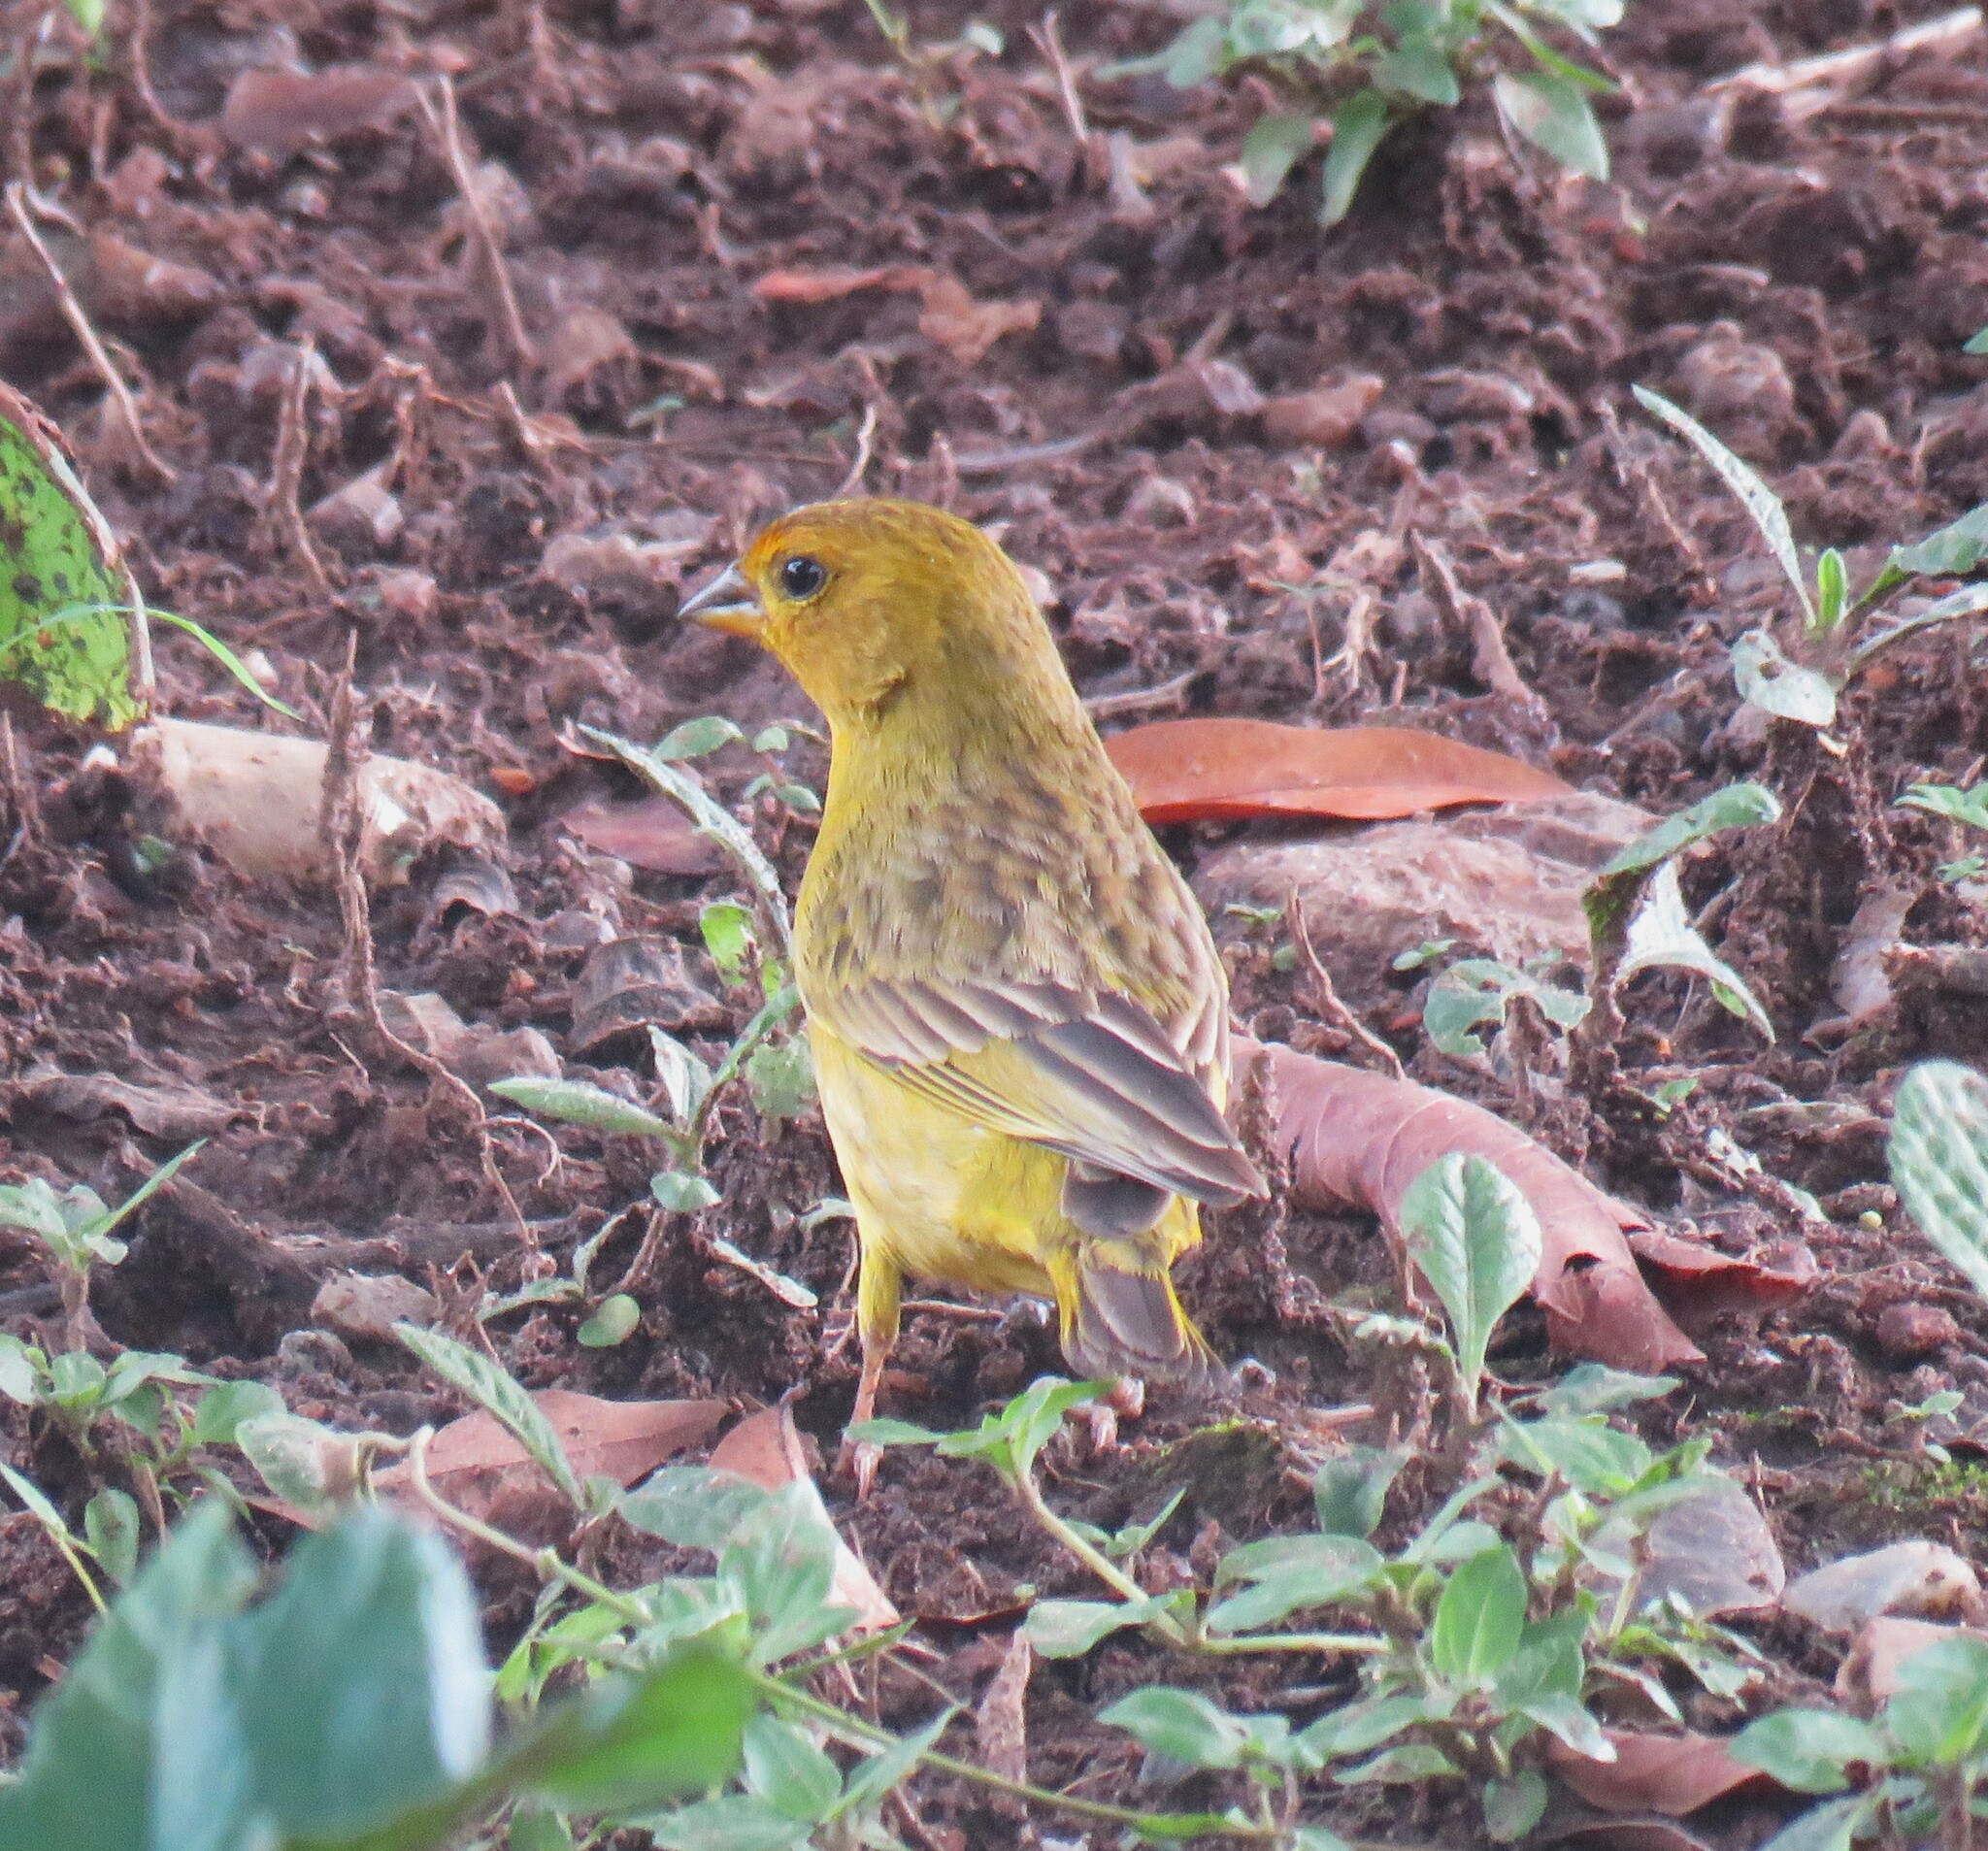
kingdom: Animalia
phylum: Chordata
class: Aves
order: Passeriformes
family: Thraupidae
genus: Sicalis
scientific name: Sicalis flaveola
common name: Saffron finch
